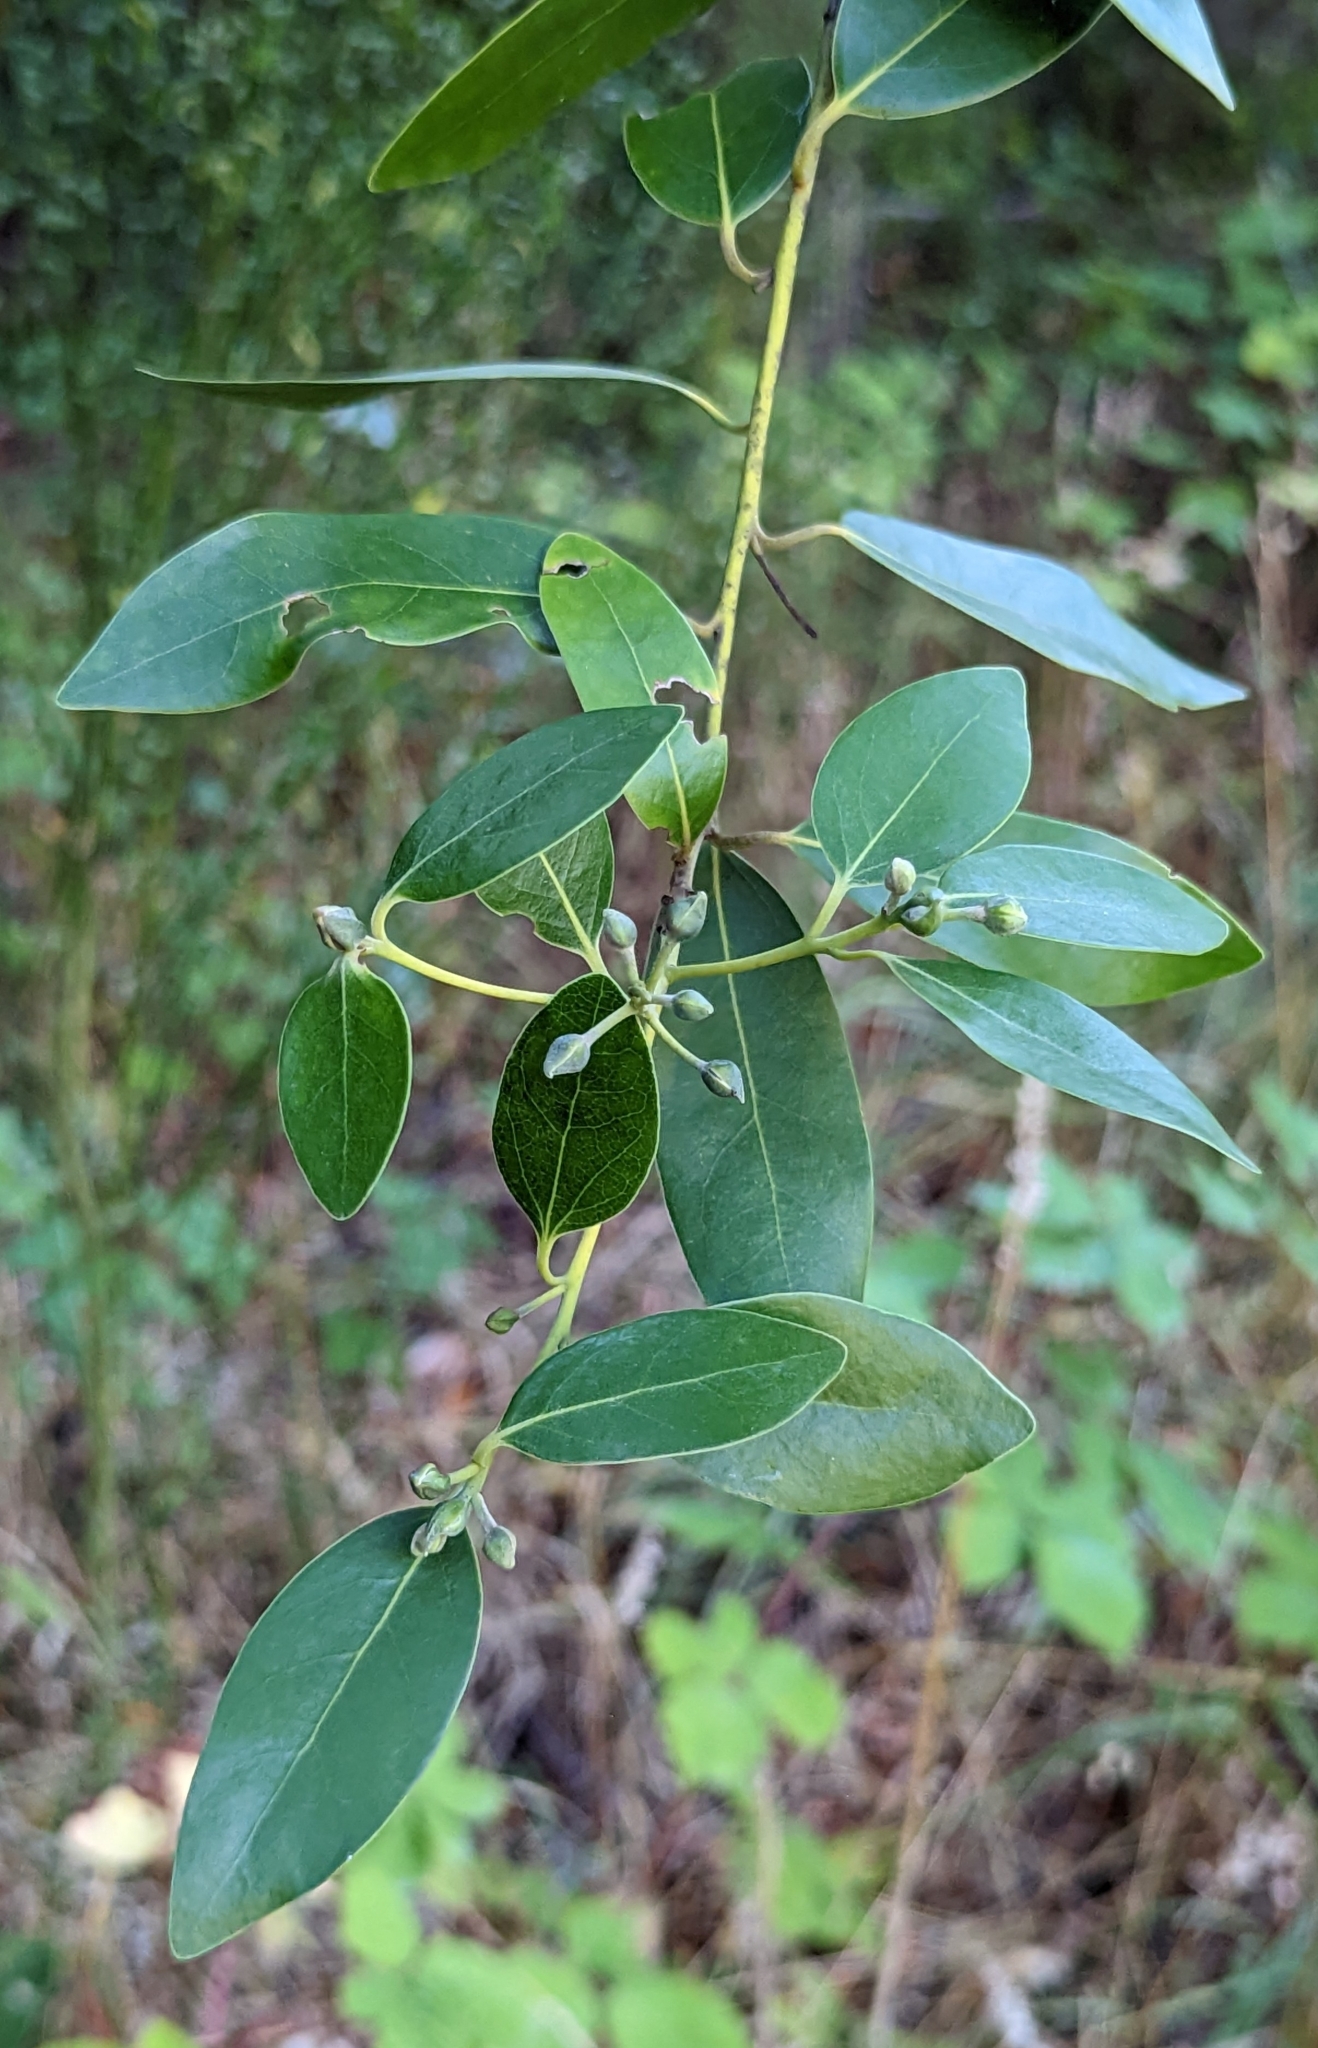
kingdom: Plantae
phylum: Tracheophyta
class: Magnoliopsida
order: Laurales
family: Lauraceae
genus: Umbellularia
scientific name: Umbellularia californica
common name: California bay
